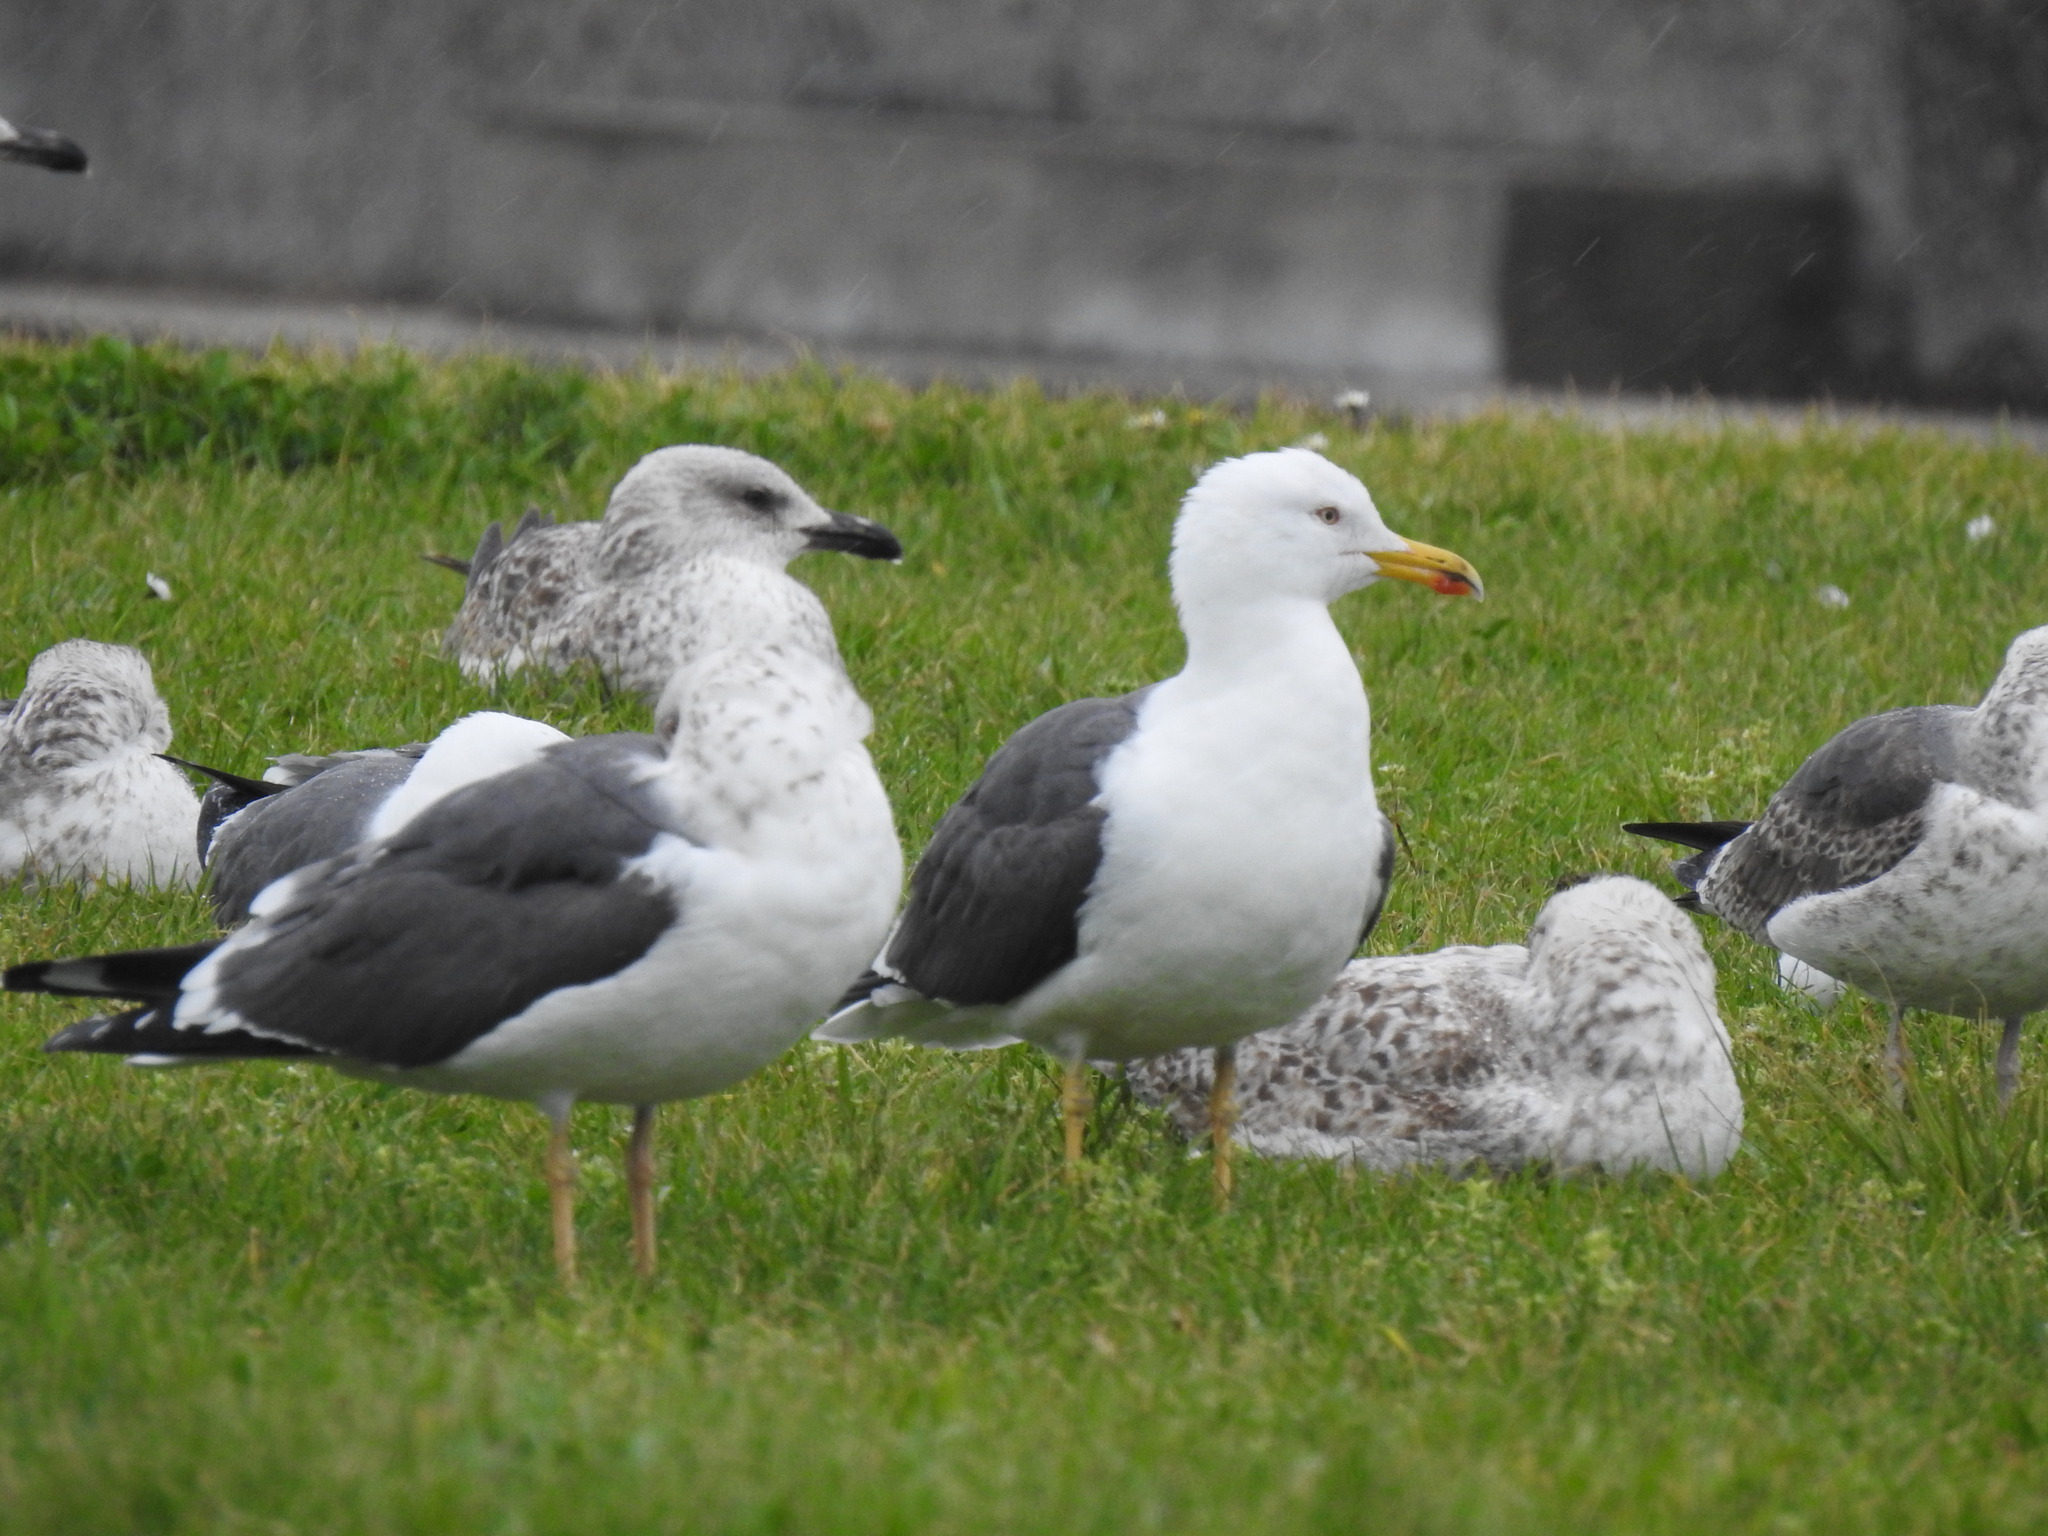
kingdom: Animalia
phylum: Chordata
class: Aves
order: Charadriiformes
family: Laridae
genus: Larus
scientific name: Larus fuscus
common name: Lesser black-backed gull
